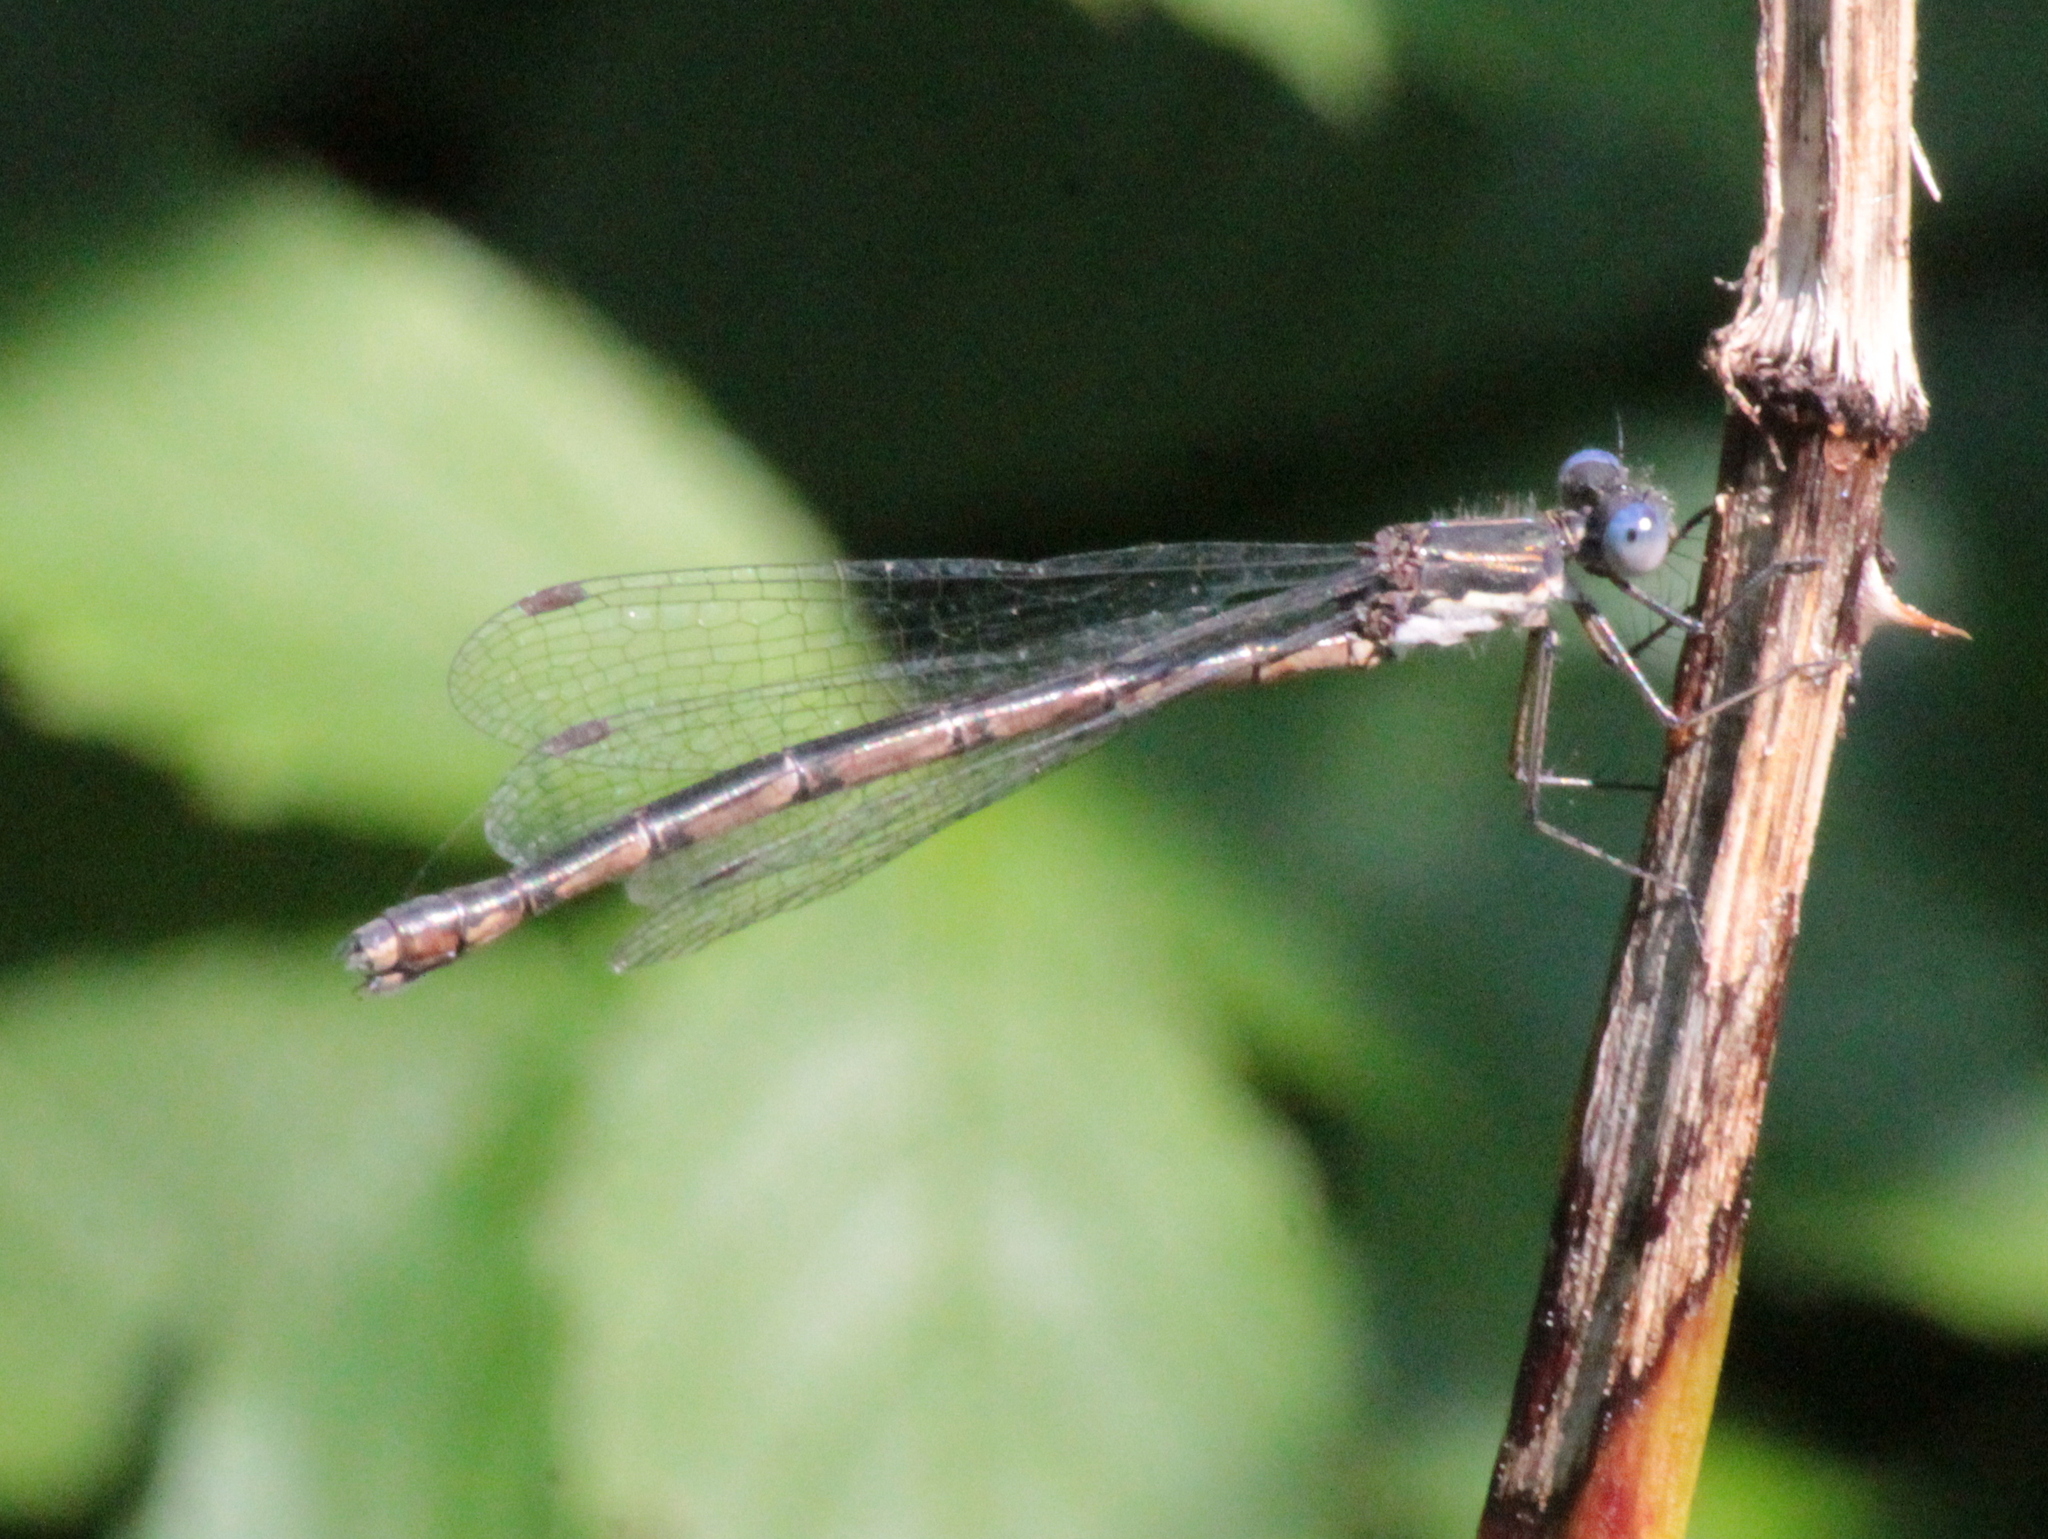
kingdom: Animalia
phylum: Arthropoda
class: Insecta
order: Odonata
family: Lestidae
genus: Lestes
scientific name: Lestes congener
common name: Spotted spreadwing
